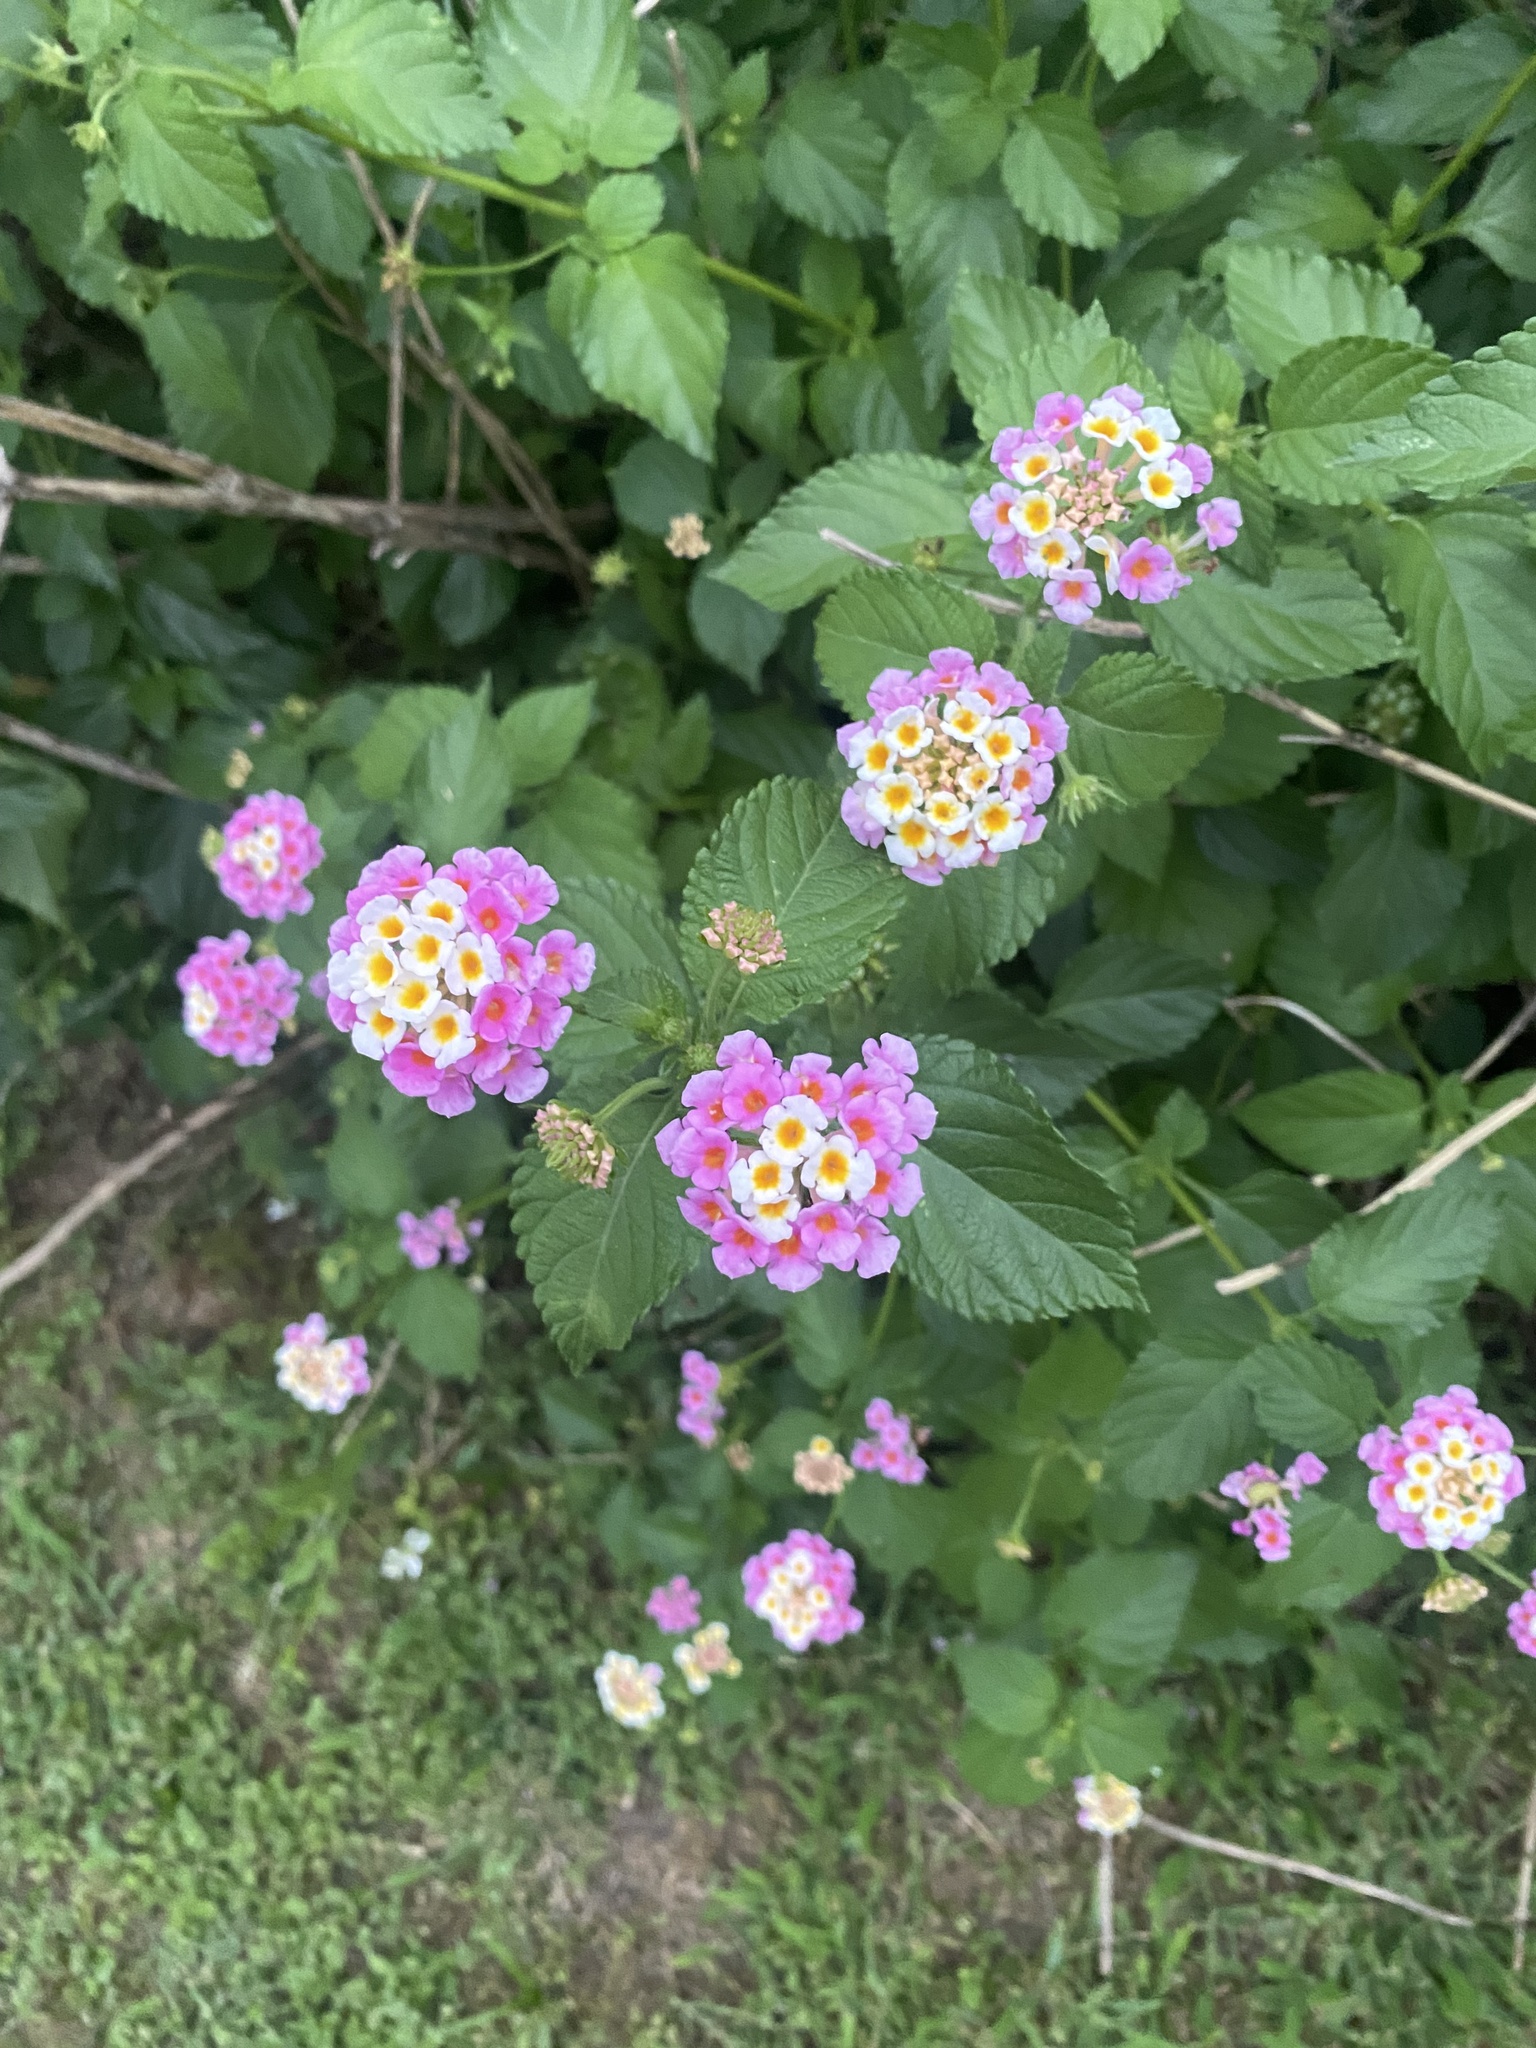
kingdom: Plantae
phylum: Tracheophyta
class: Magnoliopsida
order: Lamiales
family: Verbenaceae
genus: Lantana
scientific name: Lantana strigocamara
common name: Lantana
